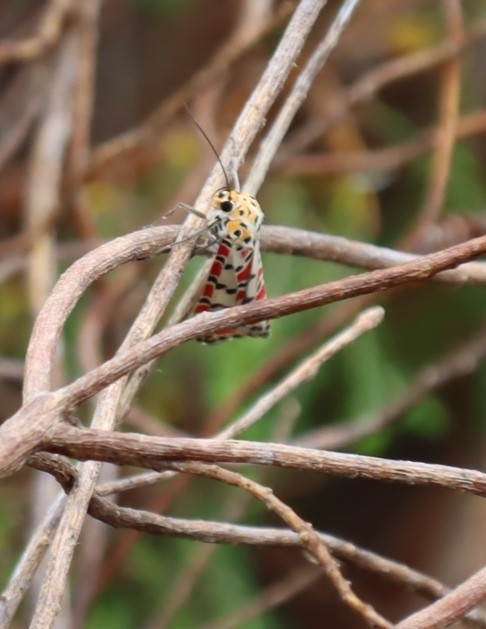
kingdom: Animalia
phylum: Arthropoda
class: Insecta
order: Lepidoptera
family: Erebidae
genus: Utetheisa
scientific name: Utetheisa pulchella
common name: Crimson speckled
